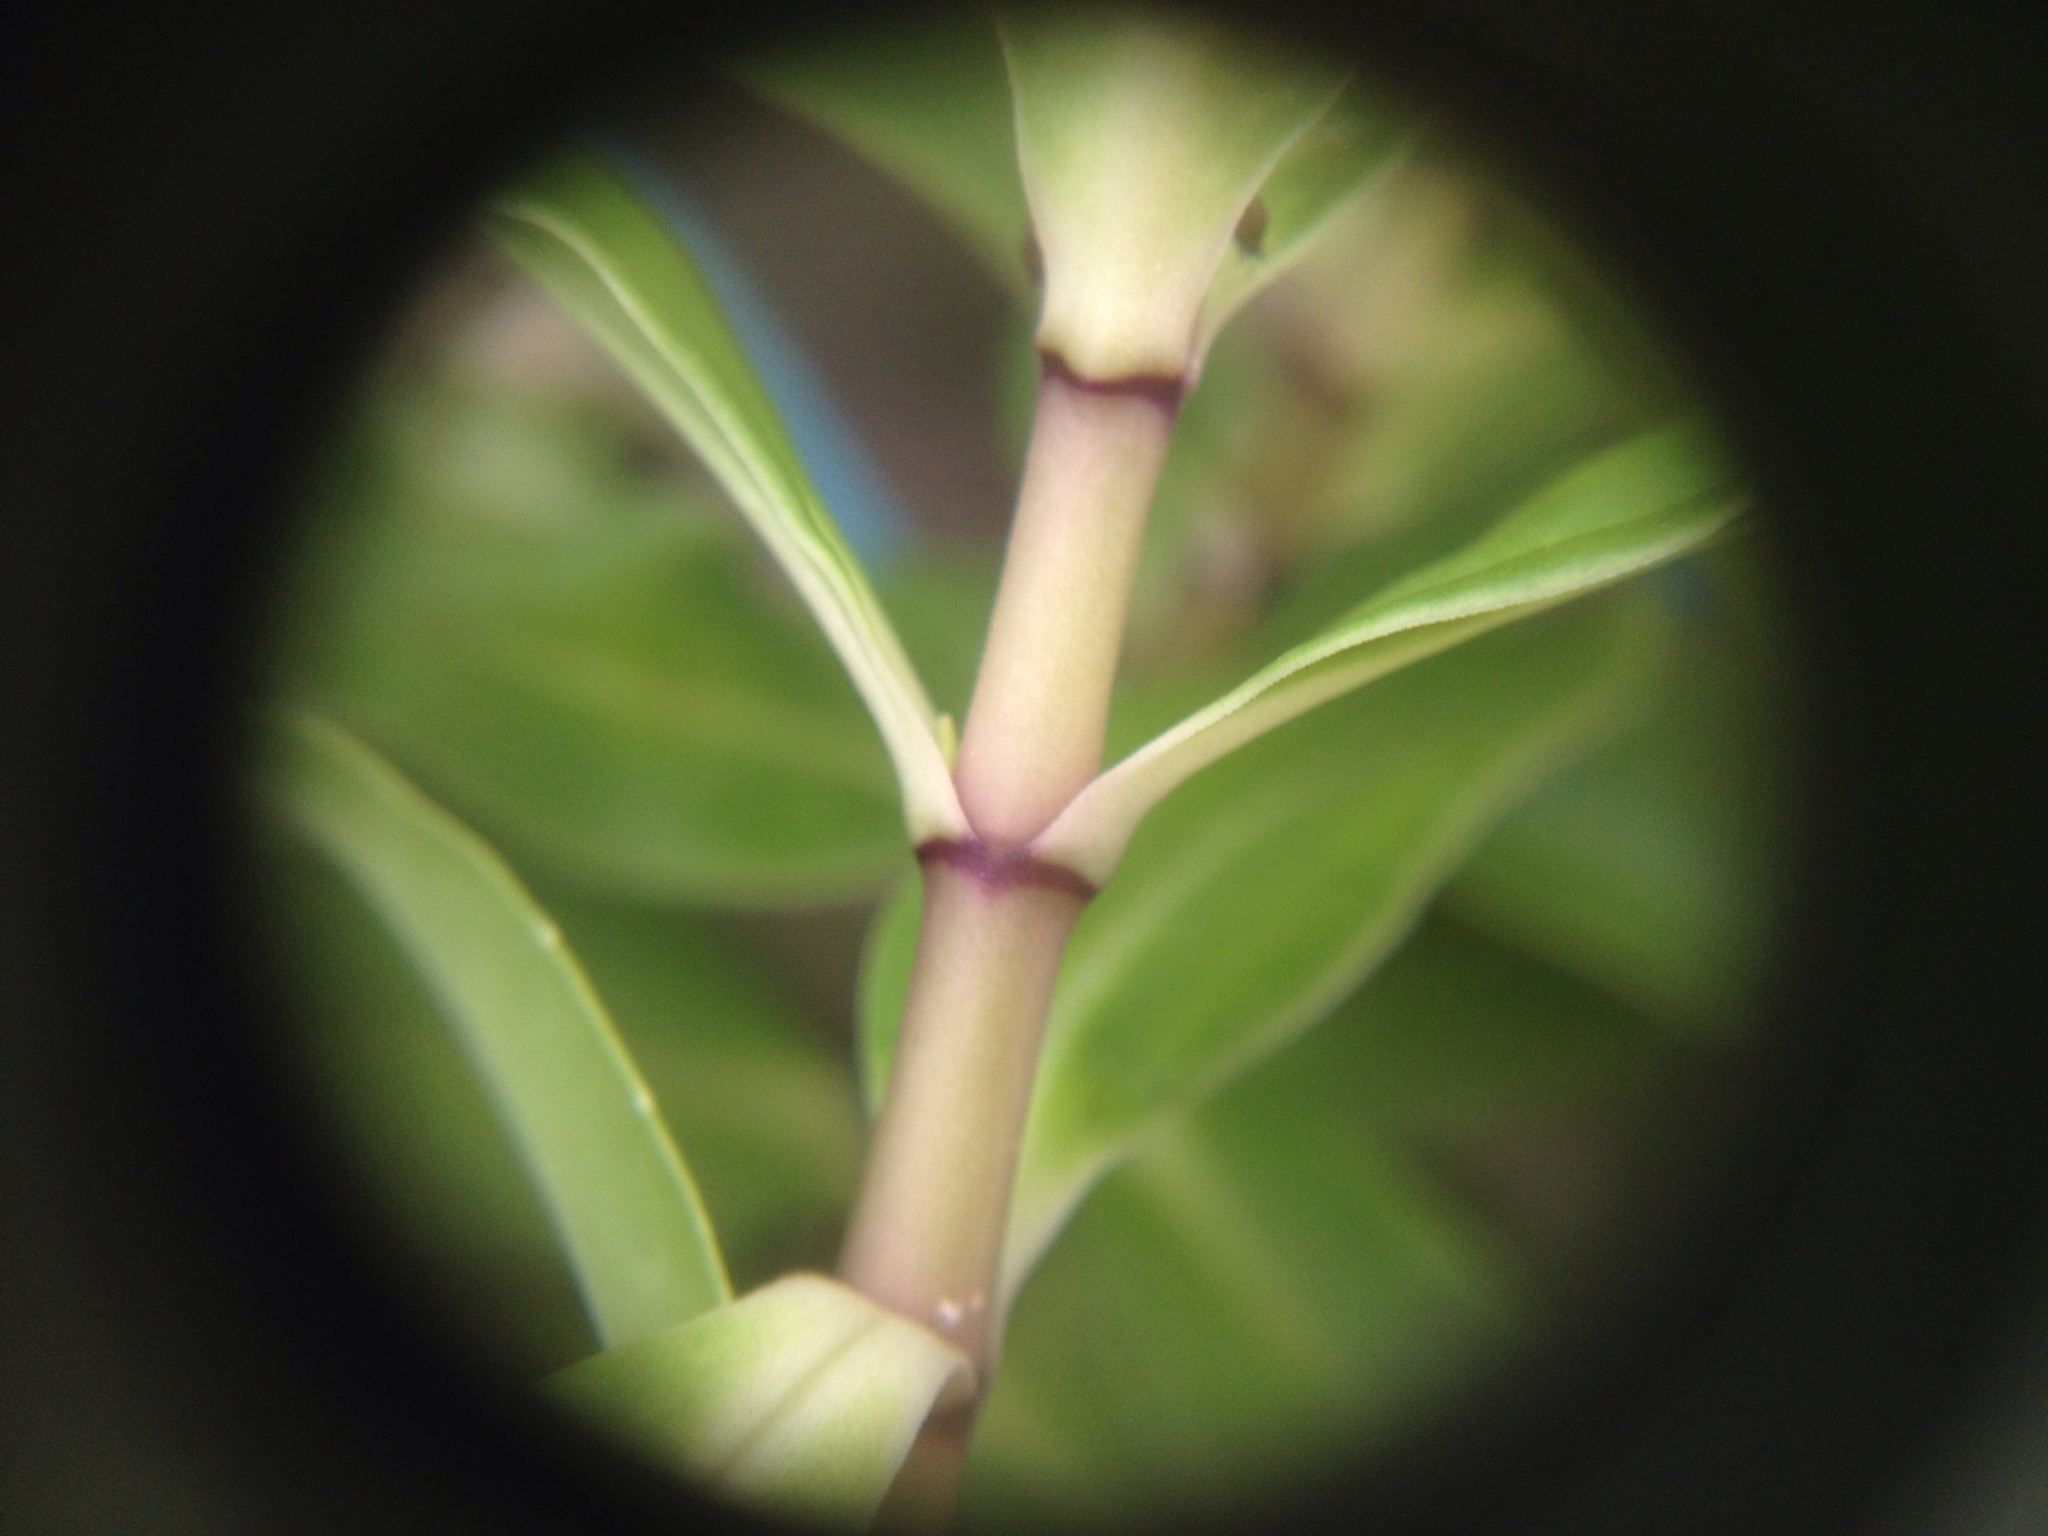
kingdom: Plantae
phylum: Tracheophyta
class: Magnoliopsida
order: Lamiales
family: Plantaginaceae
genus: Veronica
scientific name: Veronica stricta
